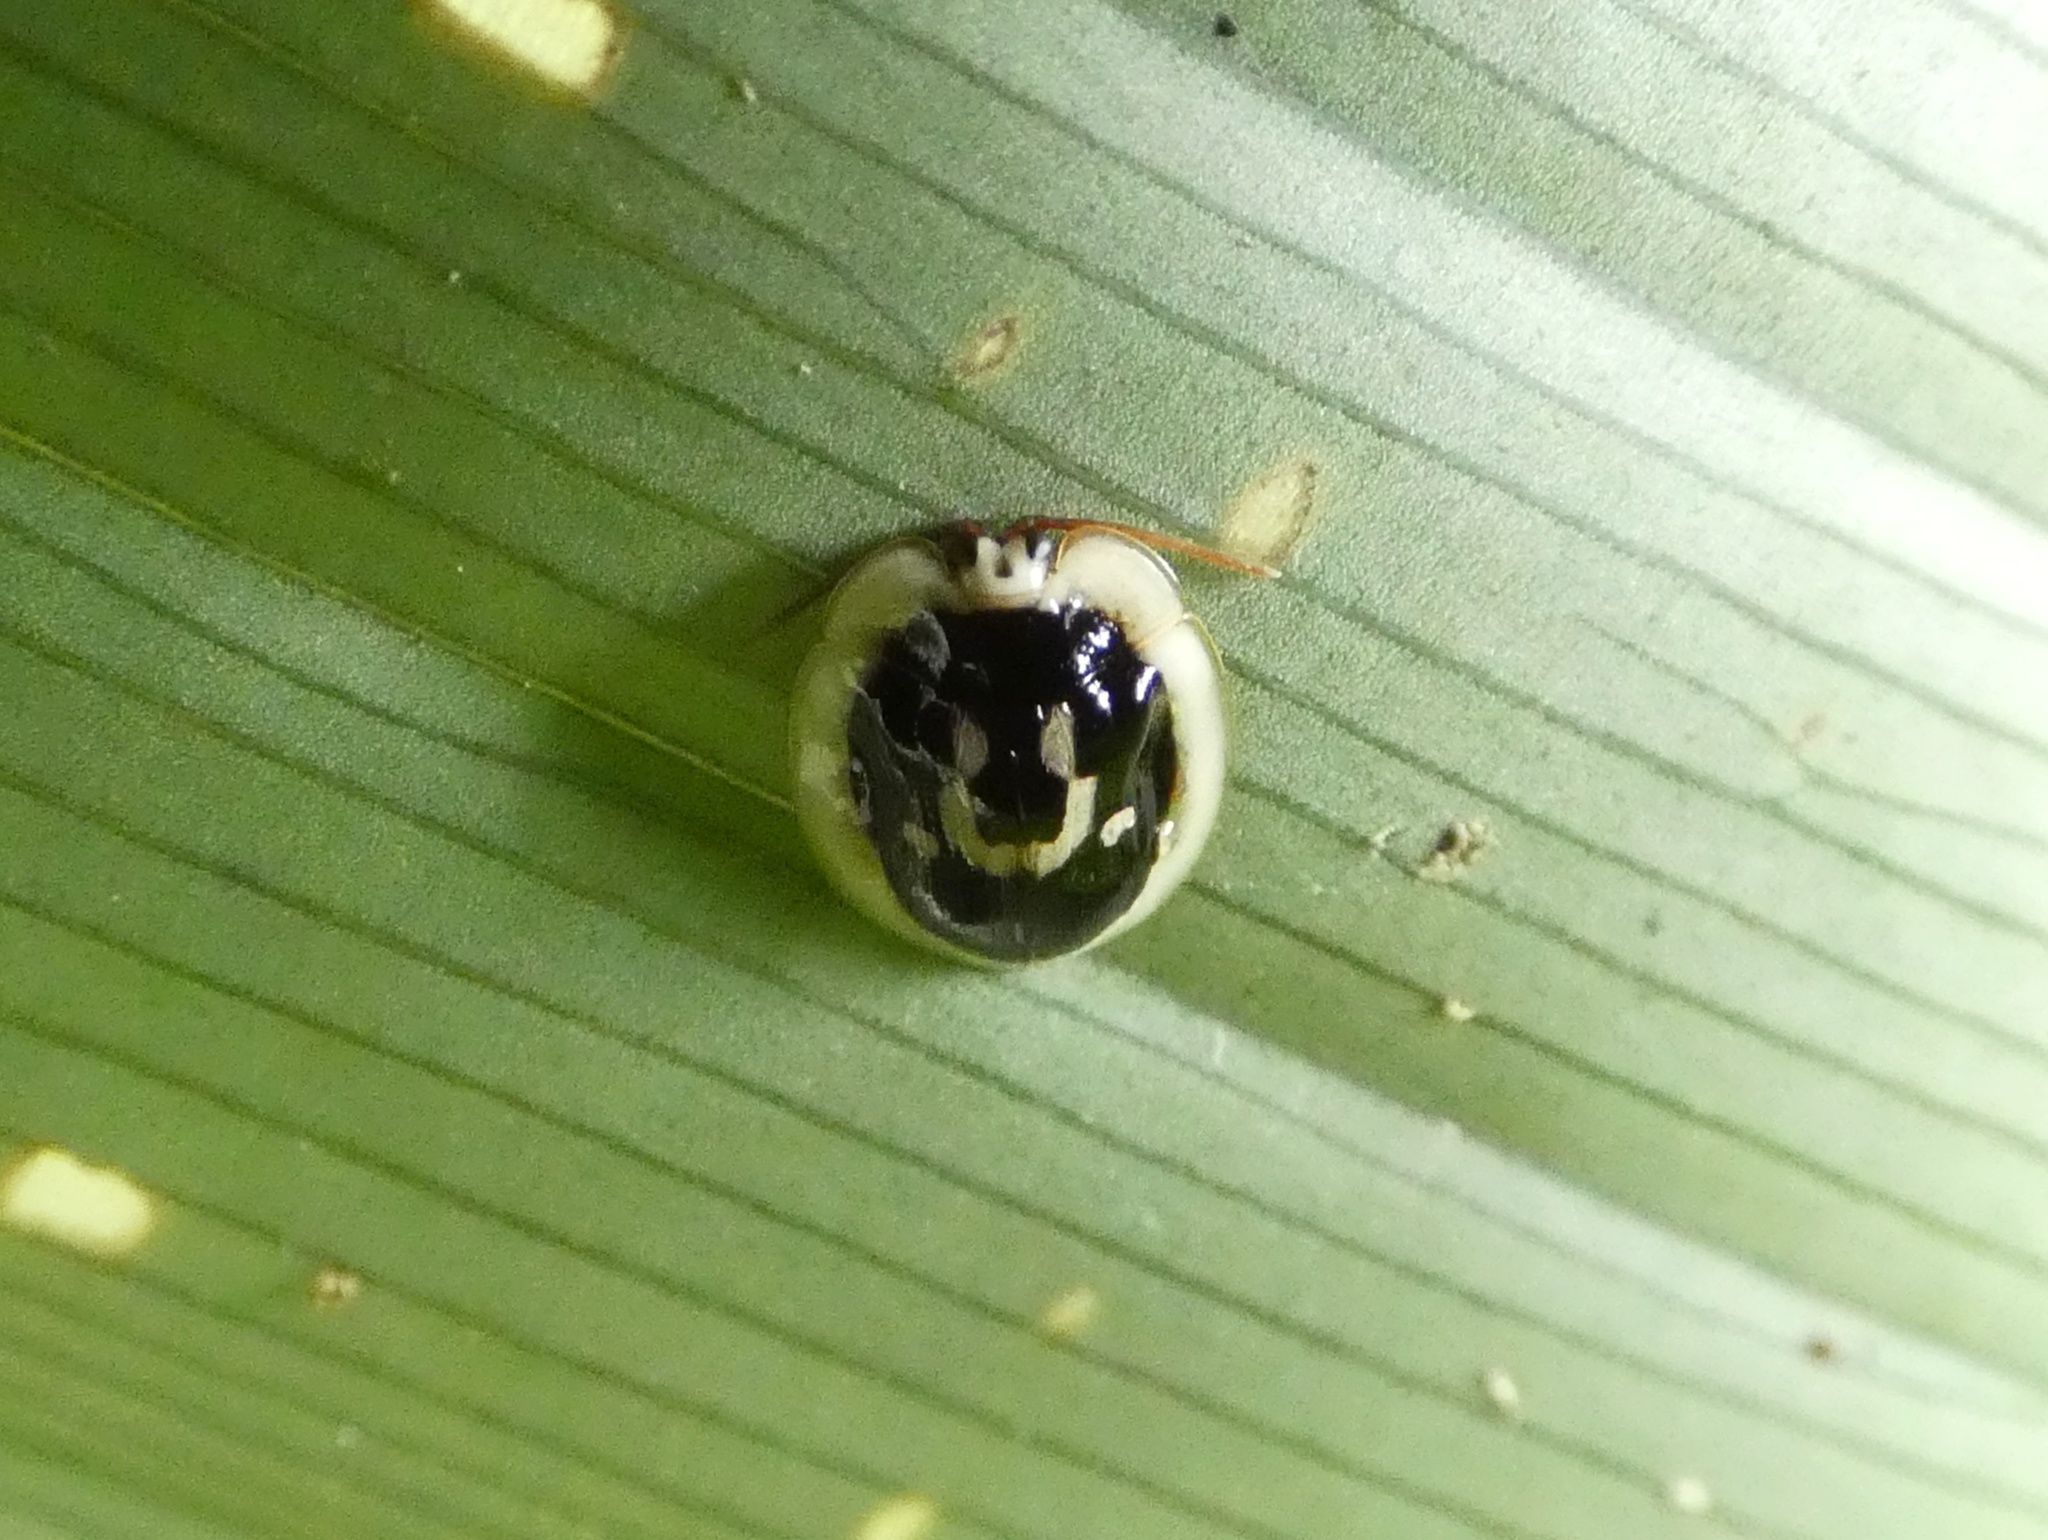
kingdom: Animalia
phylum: Arthropoda
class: Insecta
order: Coleoptera
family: Chrysomelidae
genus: Aslamidium
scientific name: Aslamidium semicirculare
